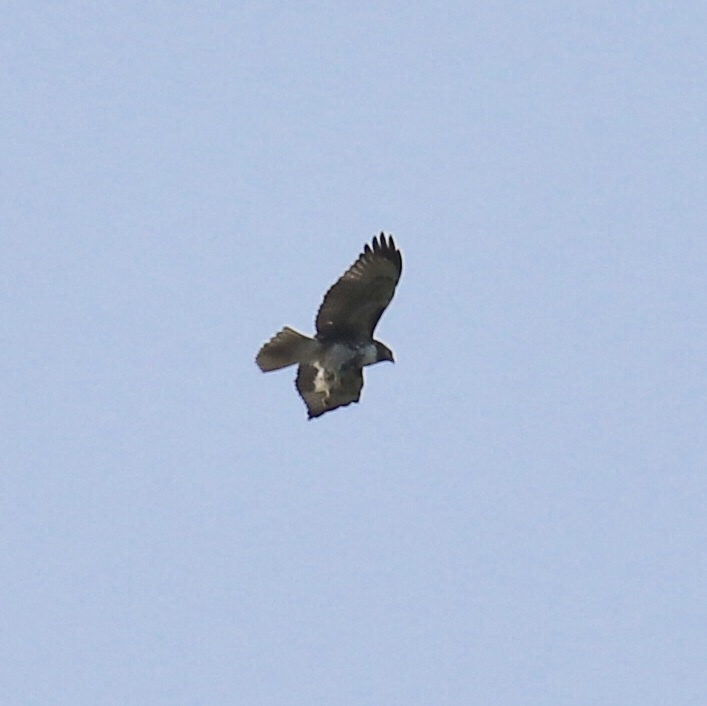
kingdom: Animalia
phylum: Chordata
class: Aves
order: Accipitriformes
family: Accipitridae
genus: Buteo
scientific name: Buteo jamaicensis
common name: Red-tailed hawk
